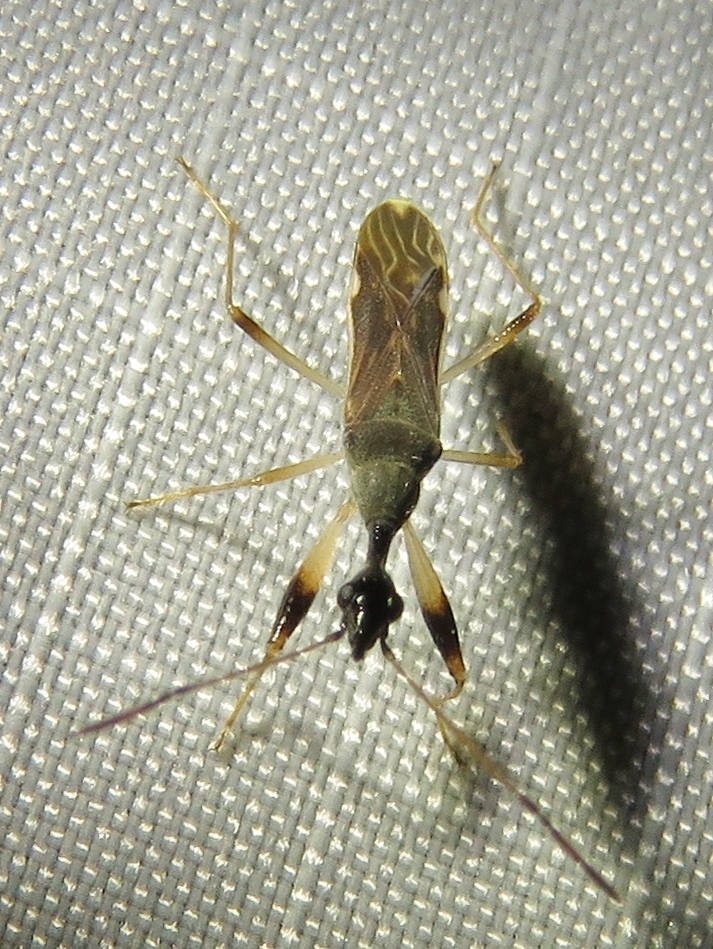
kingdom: Animalia
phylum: Arthropoda
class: Insecta
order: Hemiptera
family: Rhyparochromidae
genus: Myodocha
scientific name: Myodocha serripes
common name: Long-necked seed bug
